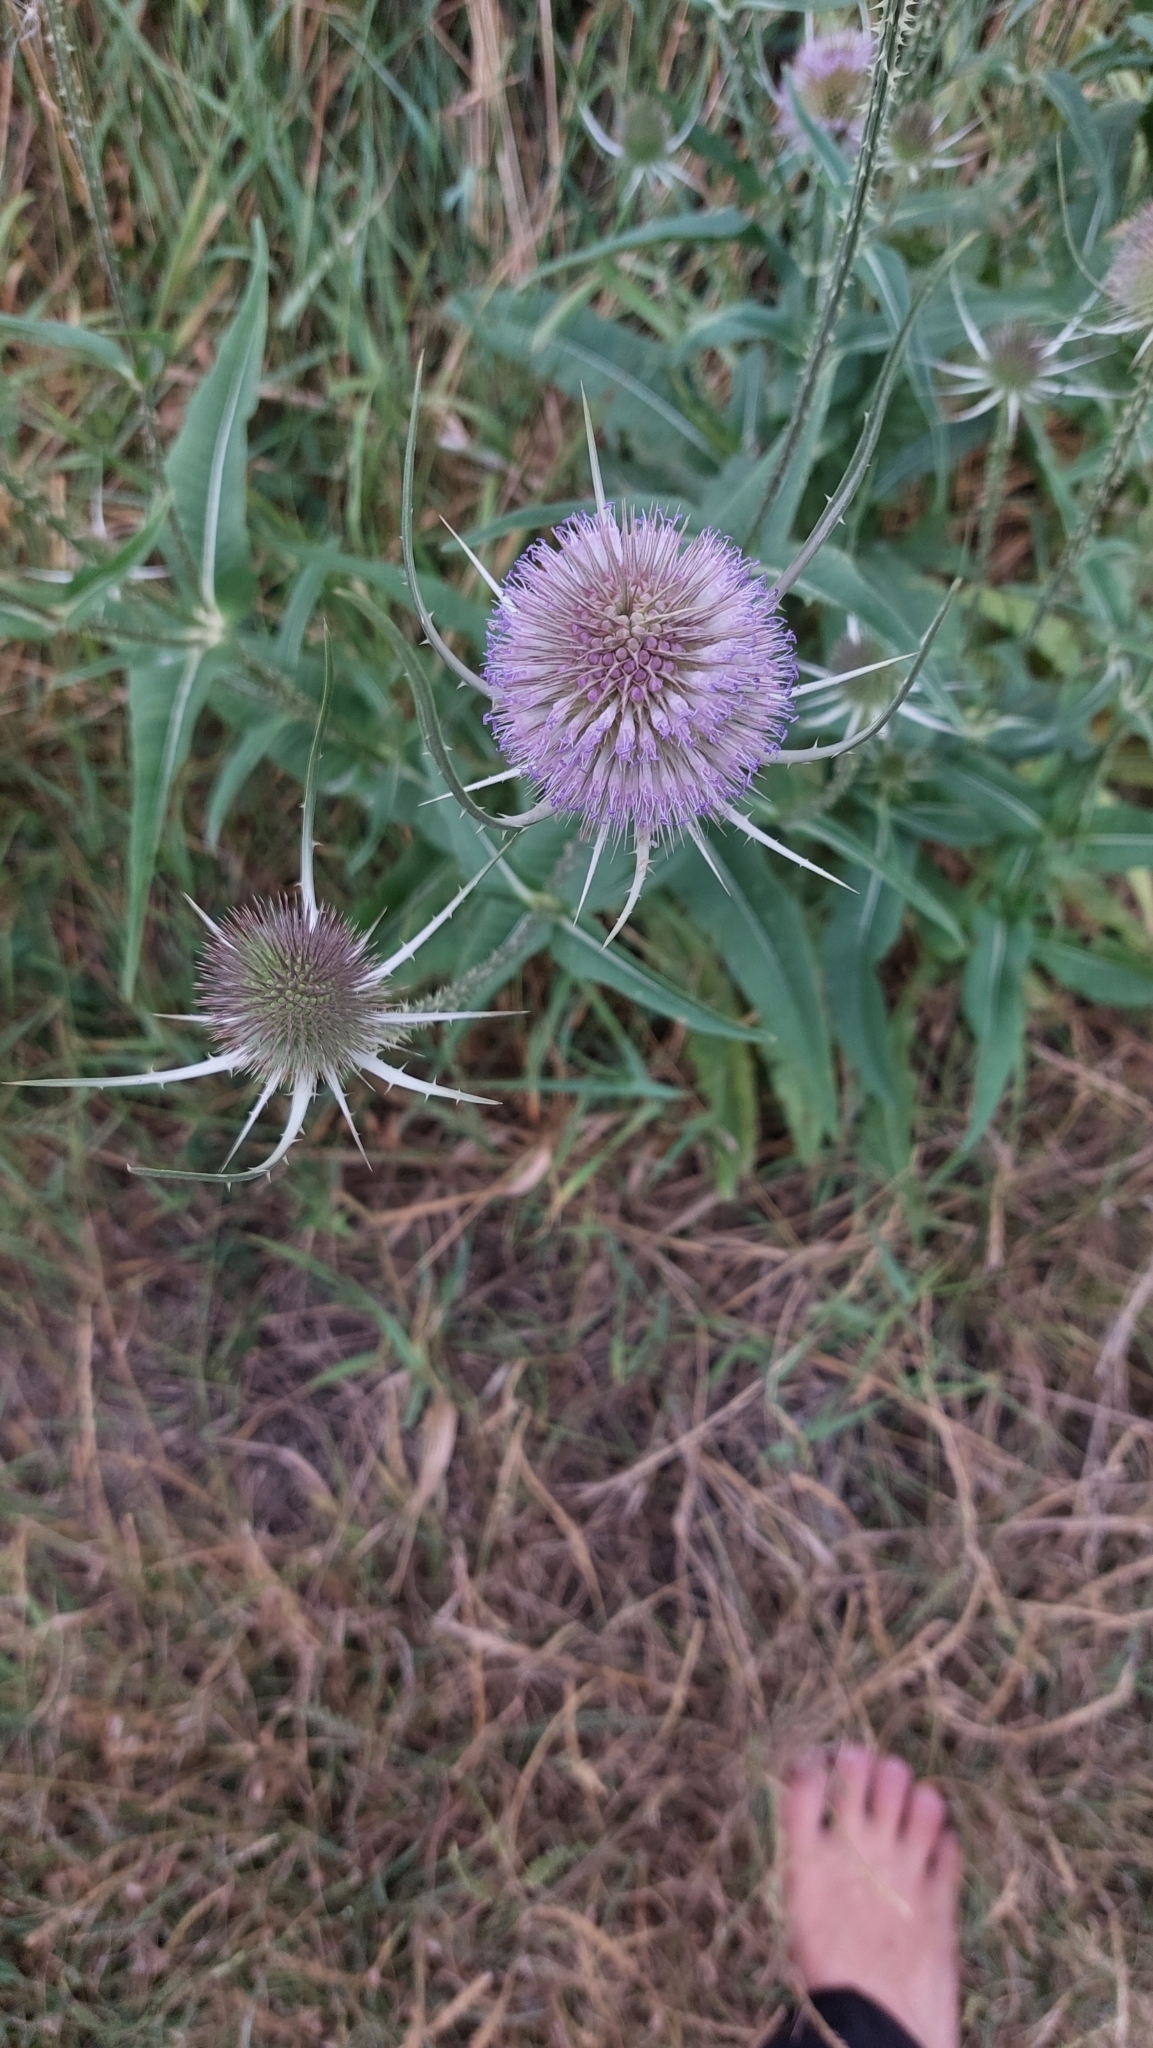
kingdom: Plantae
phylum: Tracheophyta
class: Magnoliopsida
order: Dipsacales
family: Caprifoliaceae
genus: Dipsacus
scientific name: Dipsacus fullonum
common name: Teasel
